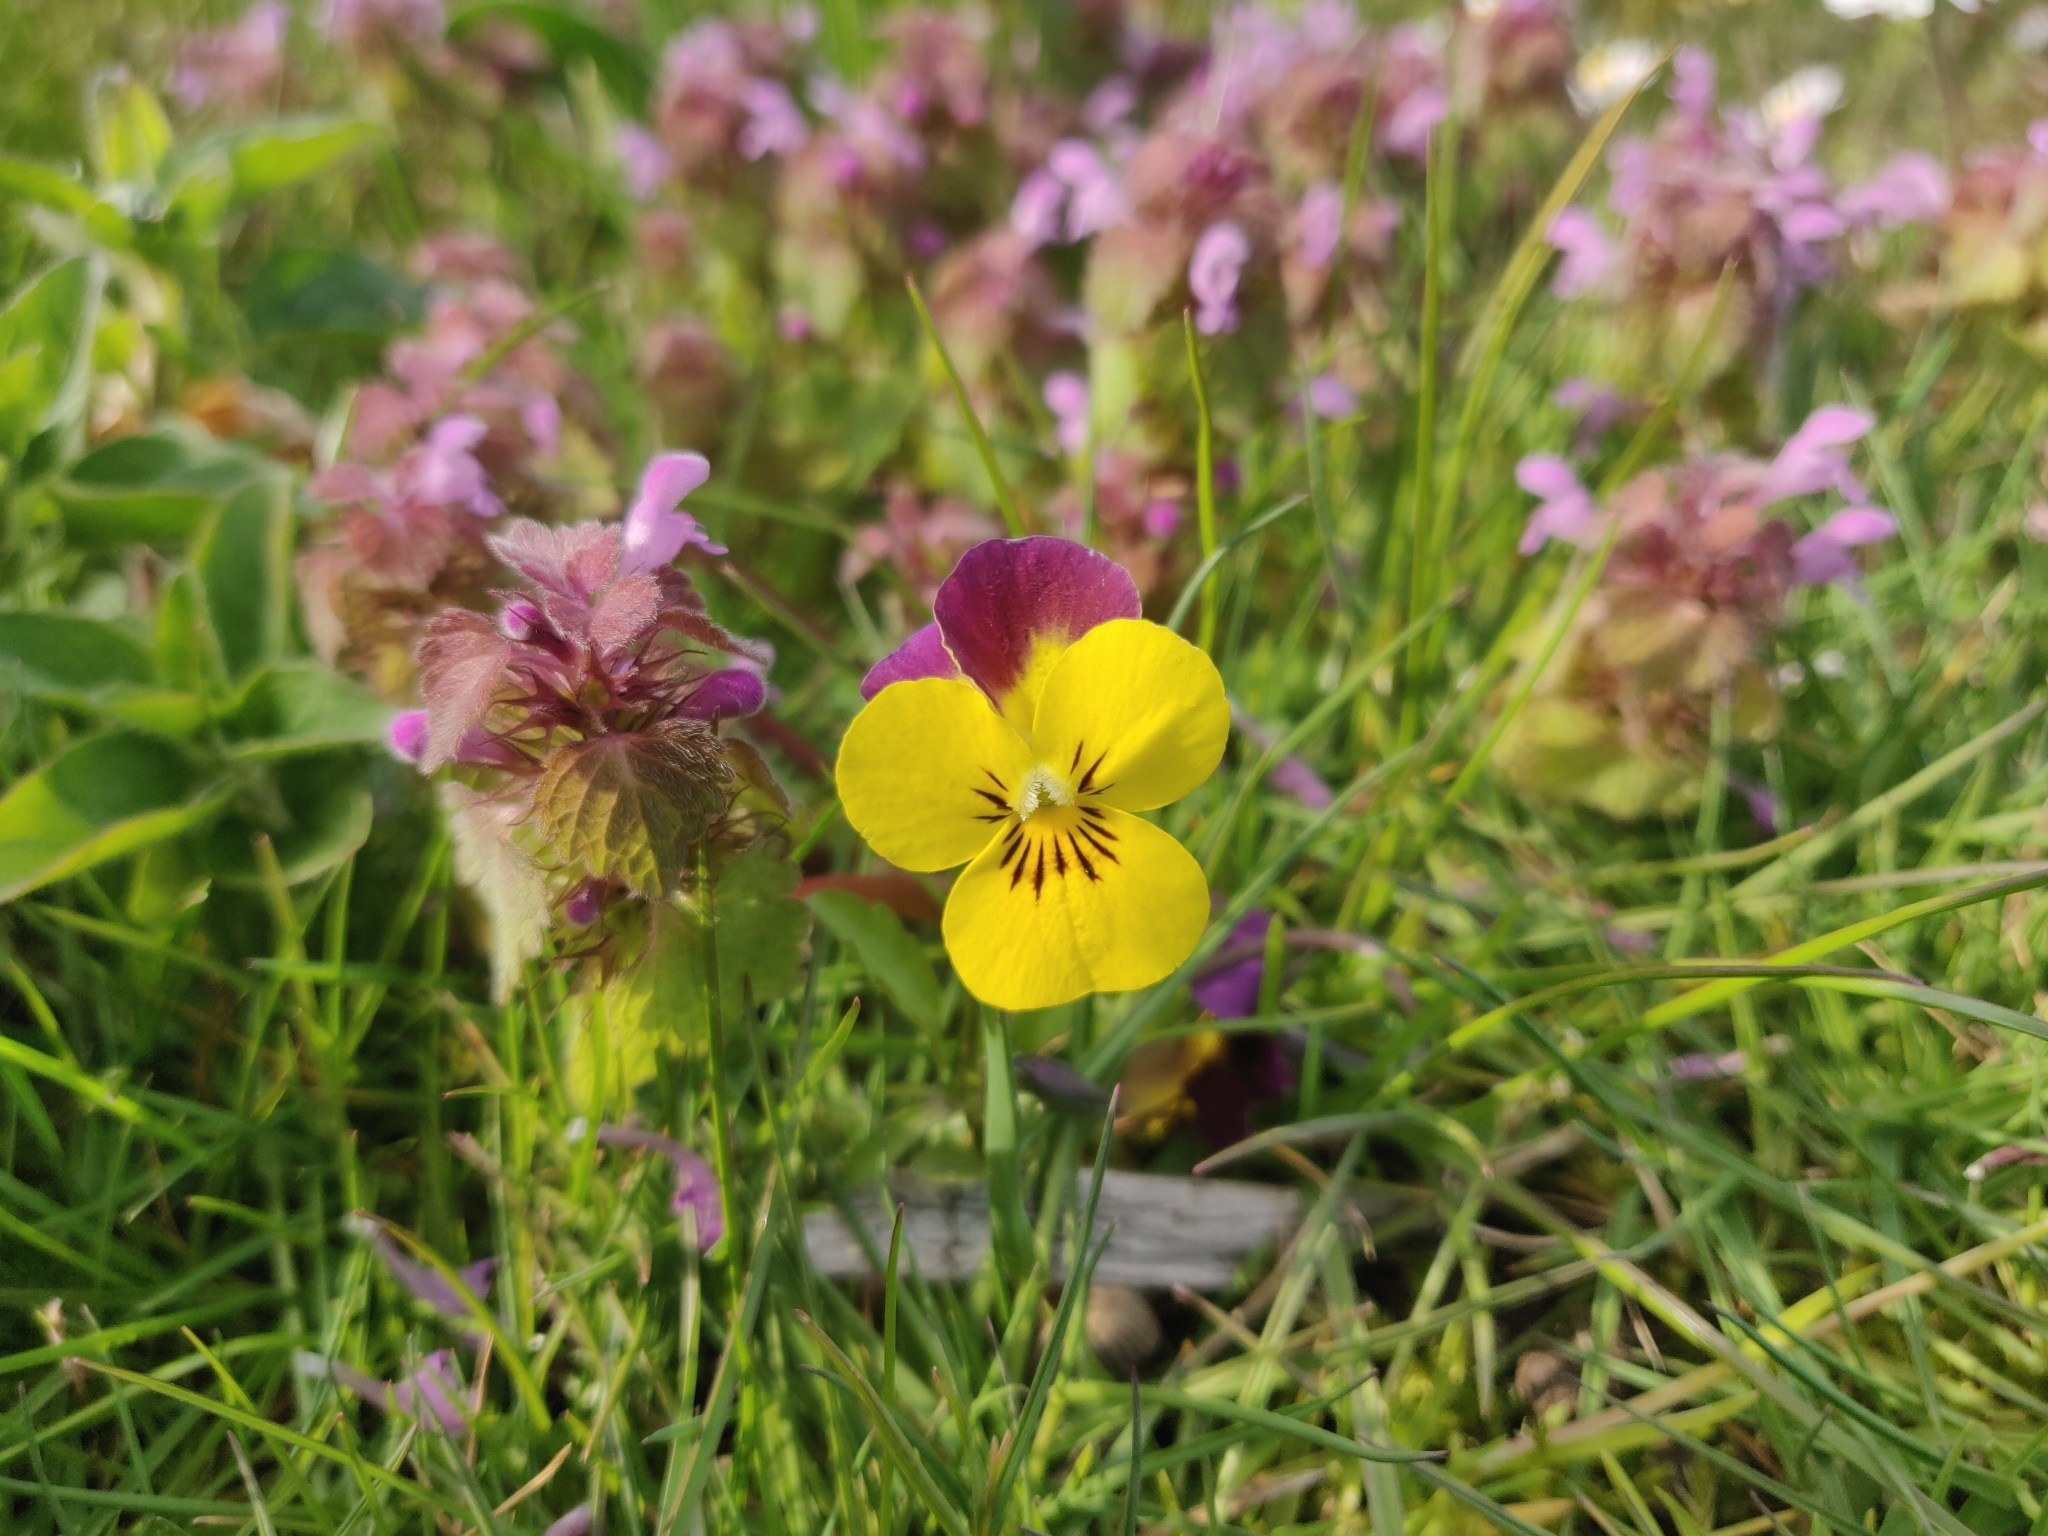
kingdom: Plantae
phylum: Tracheophyta
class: Magnoliopsida
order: Malpighiales
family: Violaceae
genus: Viola
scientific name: Viola williamsii
